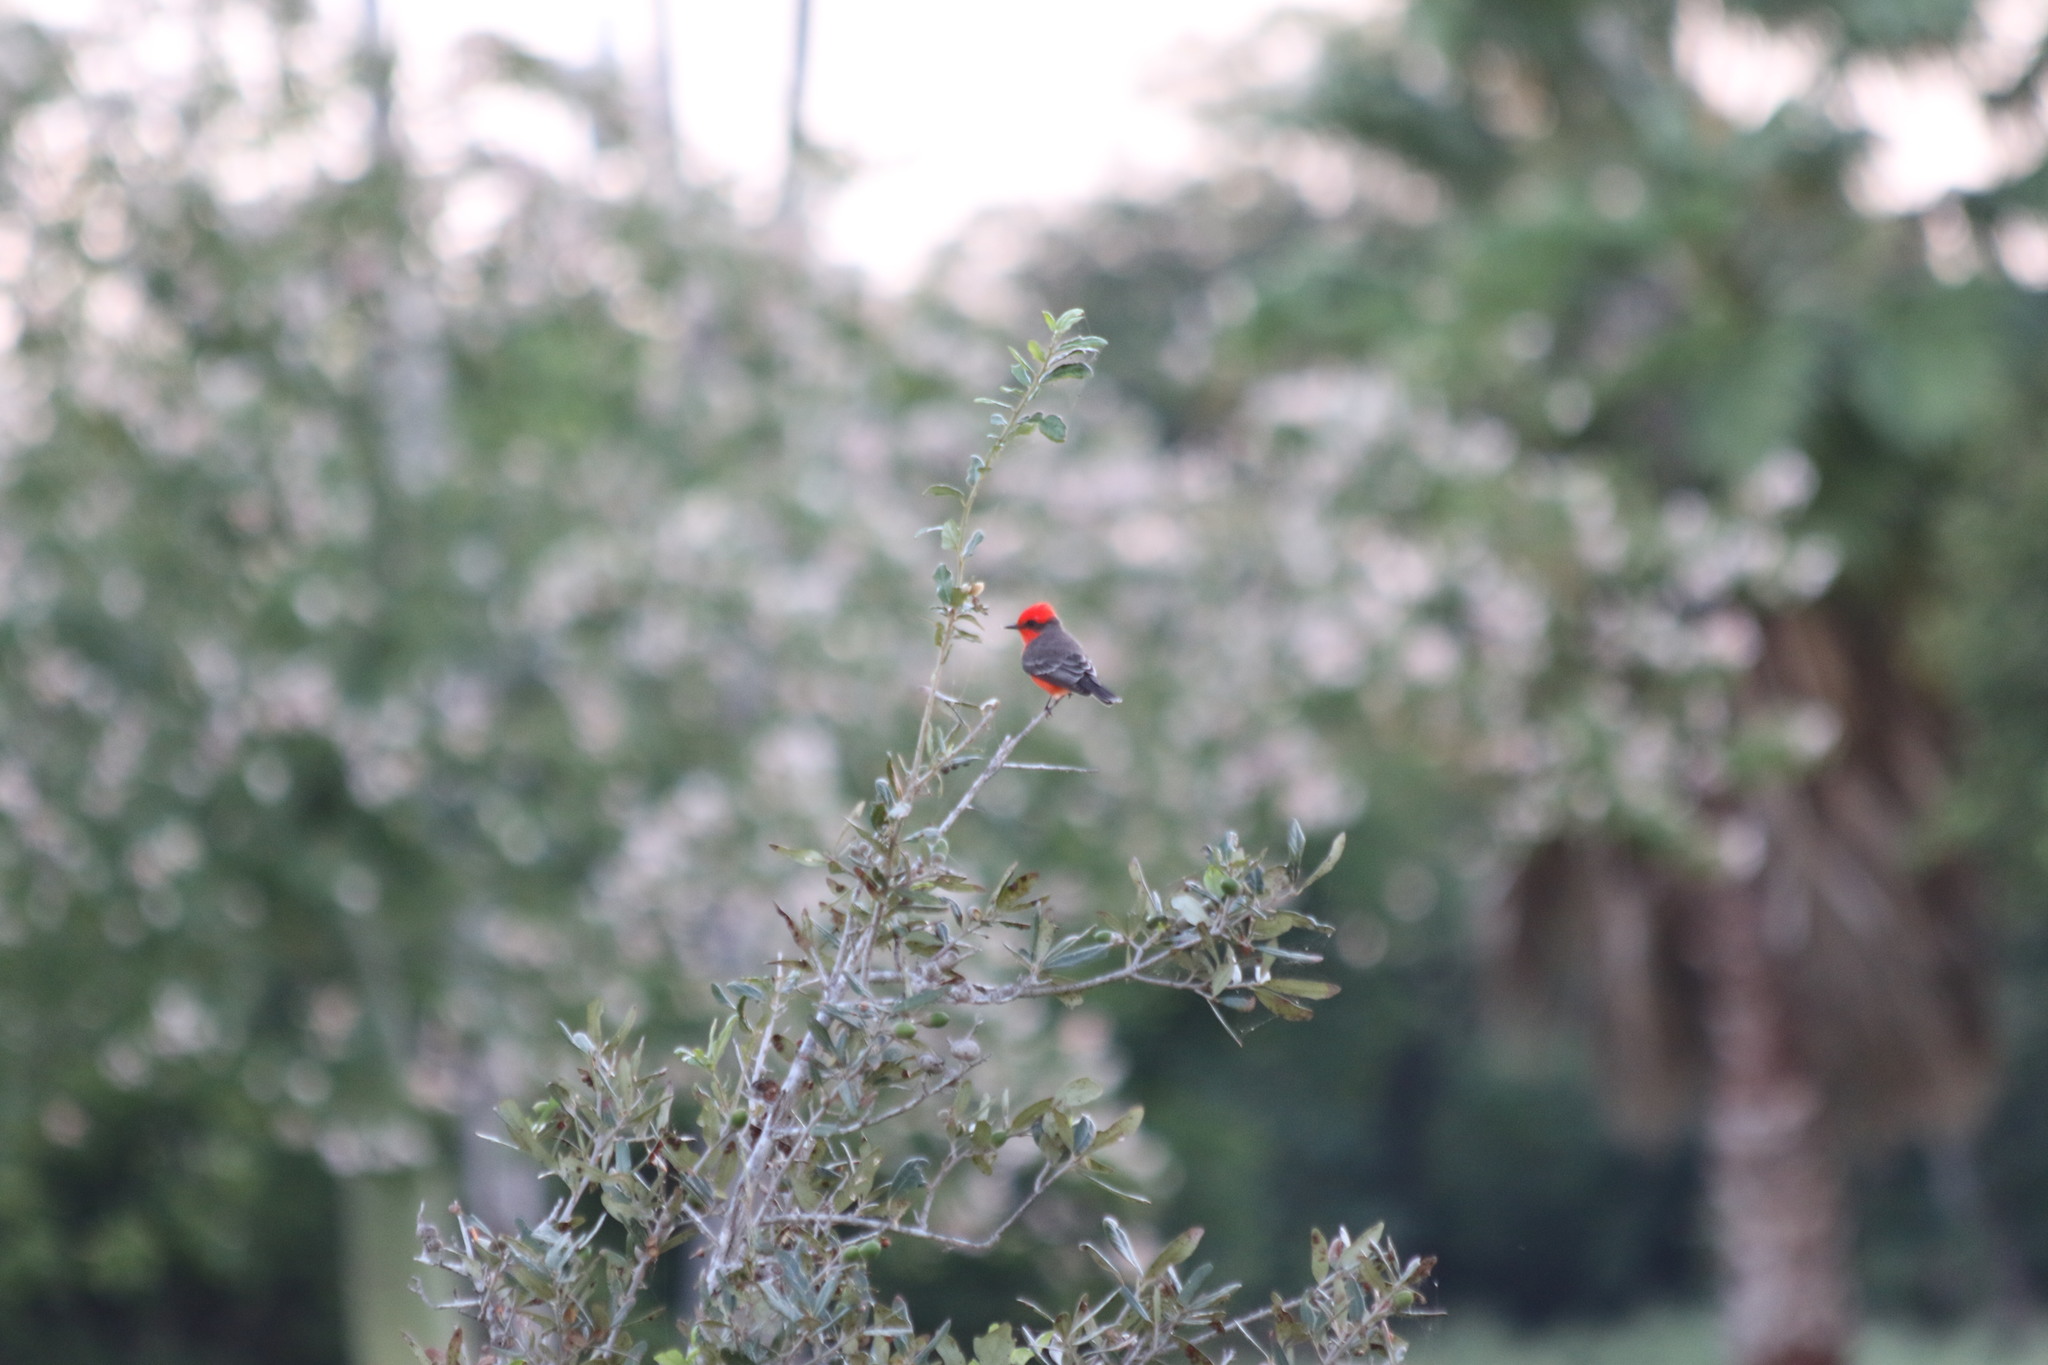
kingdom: Animalia
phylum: Chordata
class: Aves
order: Passeriformes
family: Tyrannidae
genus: Pyrocephalus
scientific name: Pyrocephalus rubinus
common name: Vermilion flycatcher
